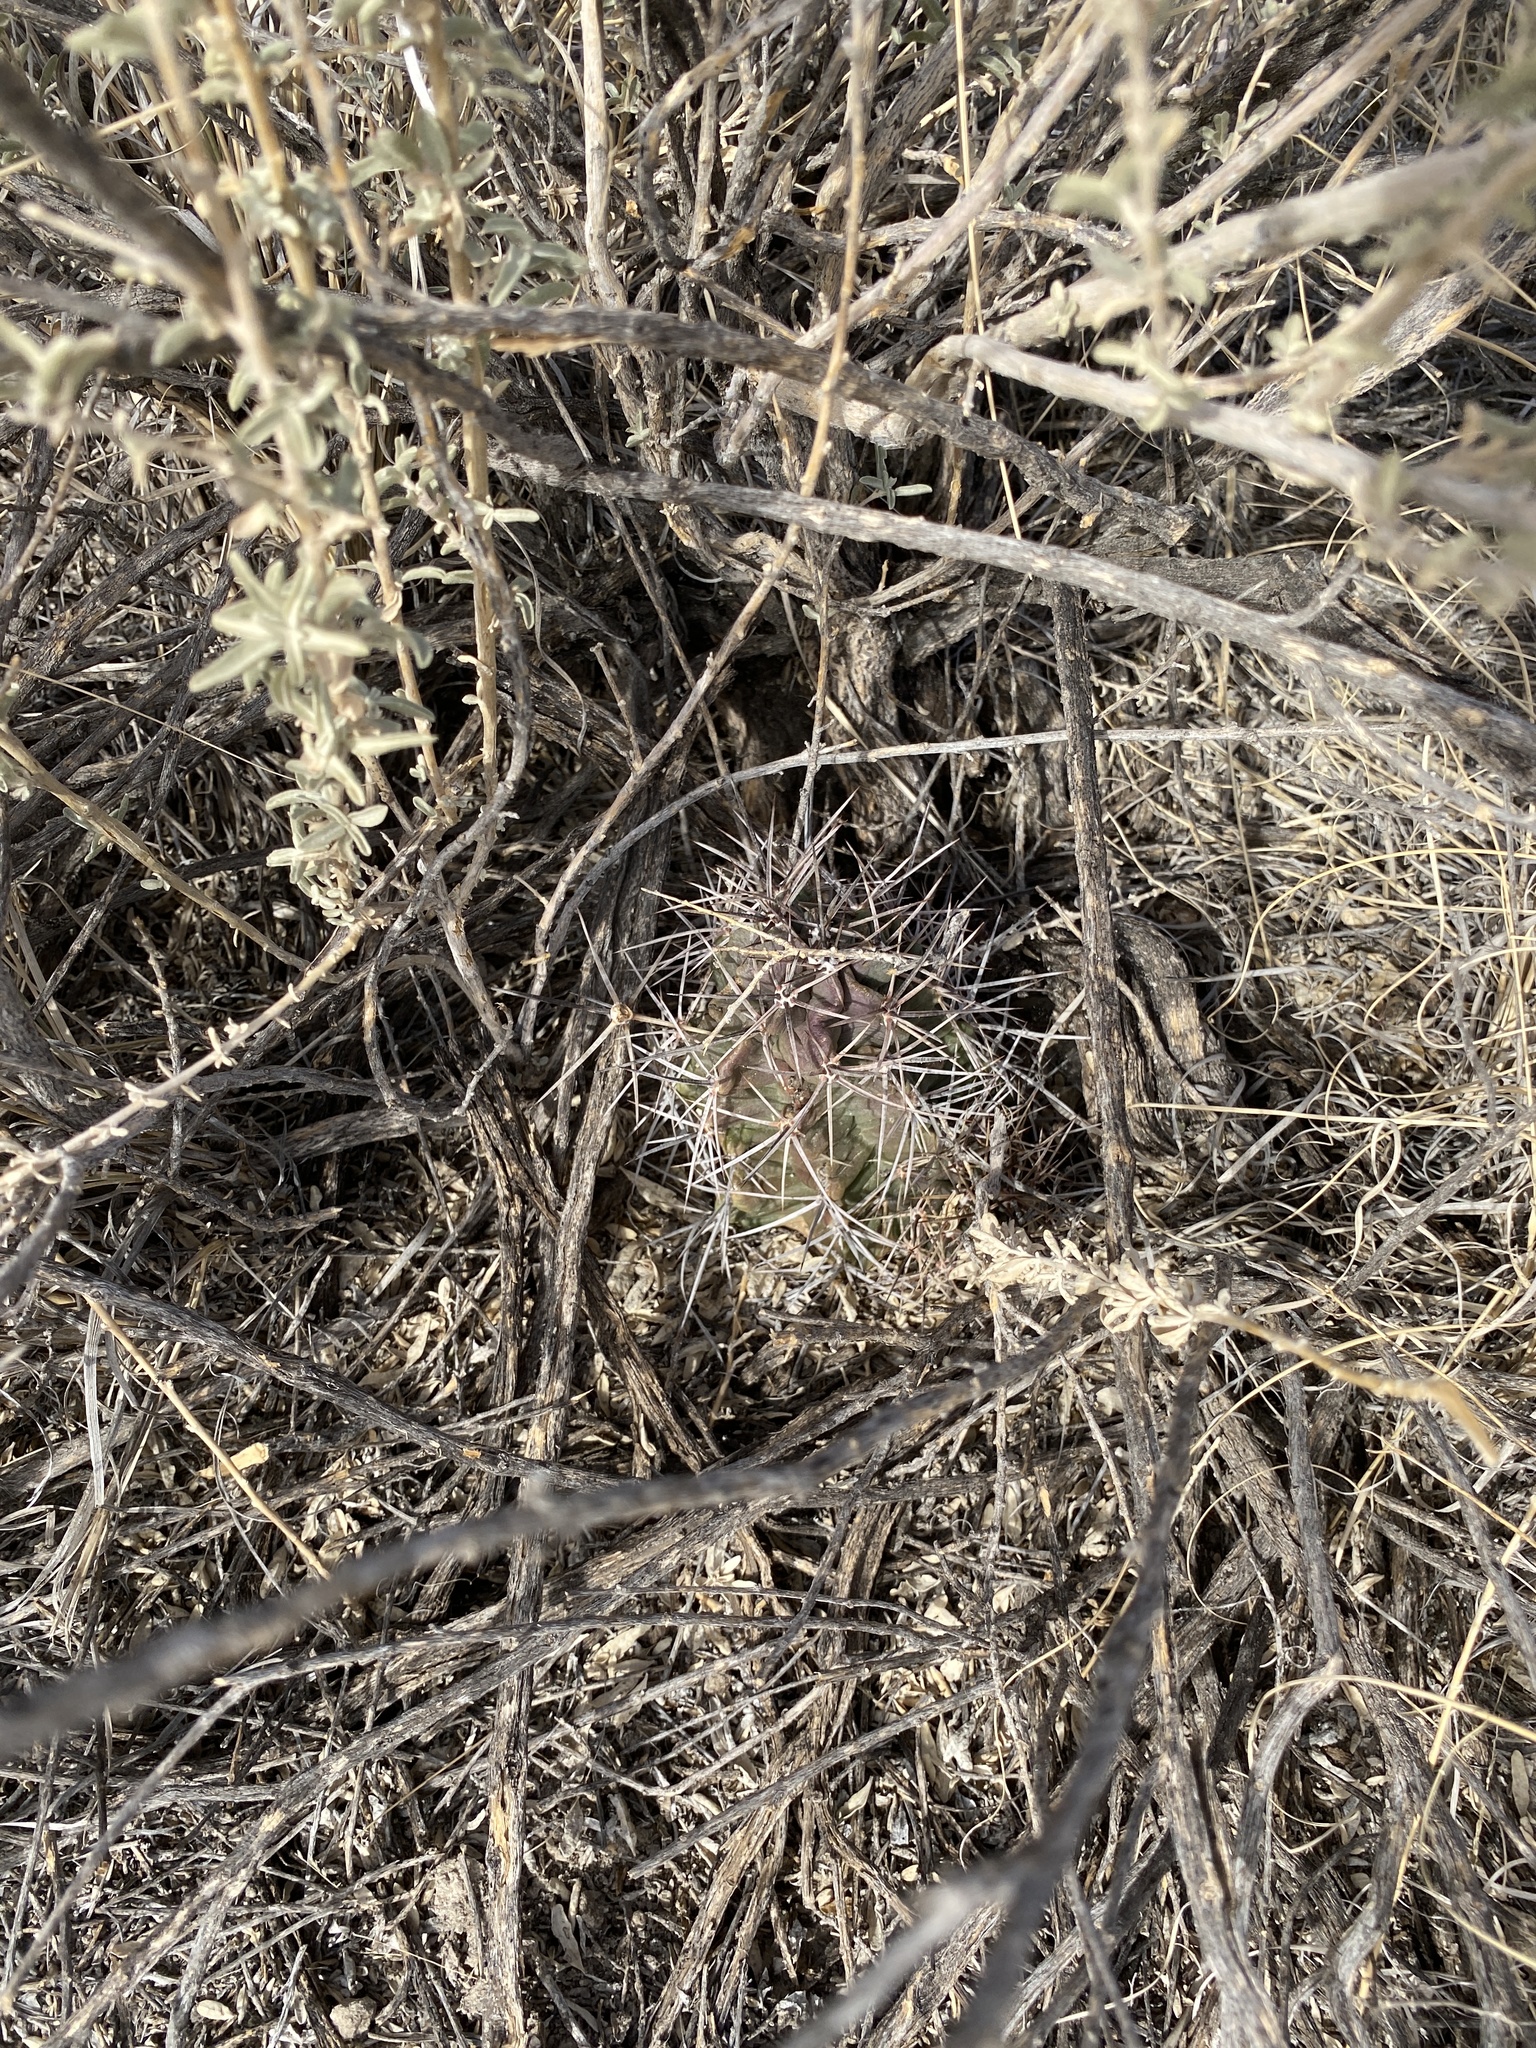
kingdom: Plantae
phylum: Tracheophyta
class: Magnoliopsida
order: Caryophyllales
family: Cactaceae
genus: Echinocereus
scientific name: Echinocereus triglochidiatus
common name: Claretcup hedgehog
